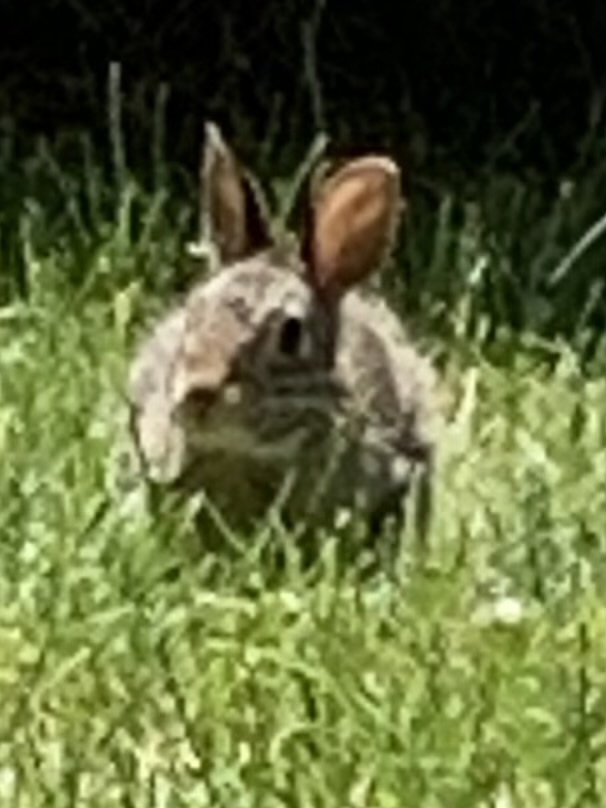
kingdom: Animalia
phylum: Chordata
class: Mammalia
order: Lagomorpha
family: Leporidae
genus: Sylvilagus
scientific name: Sylvilagus floridanus
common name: Eastern cottontail
